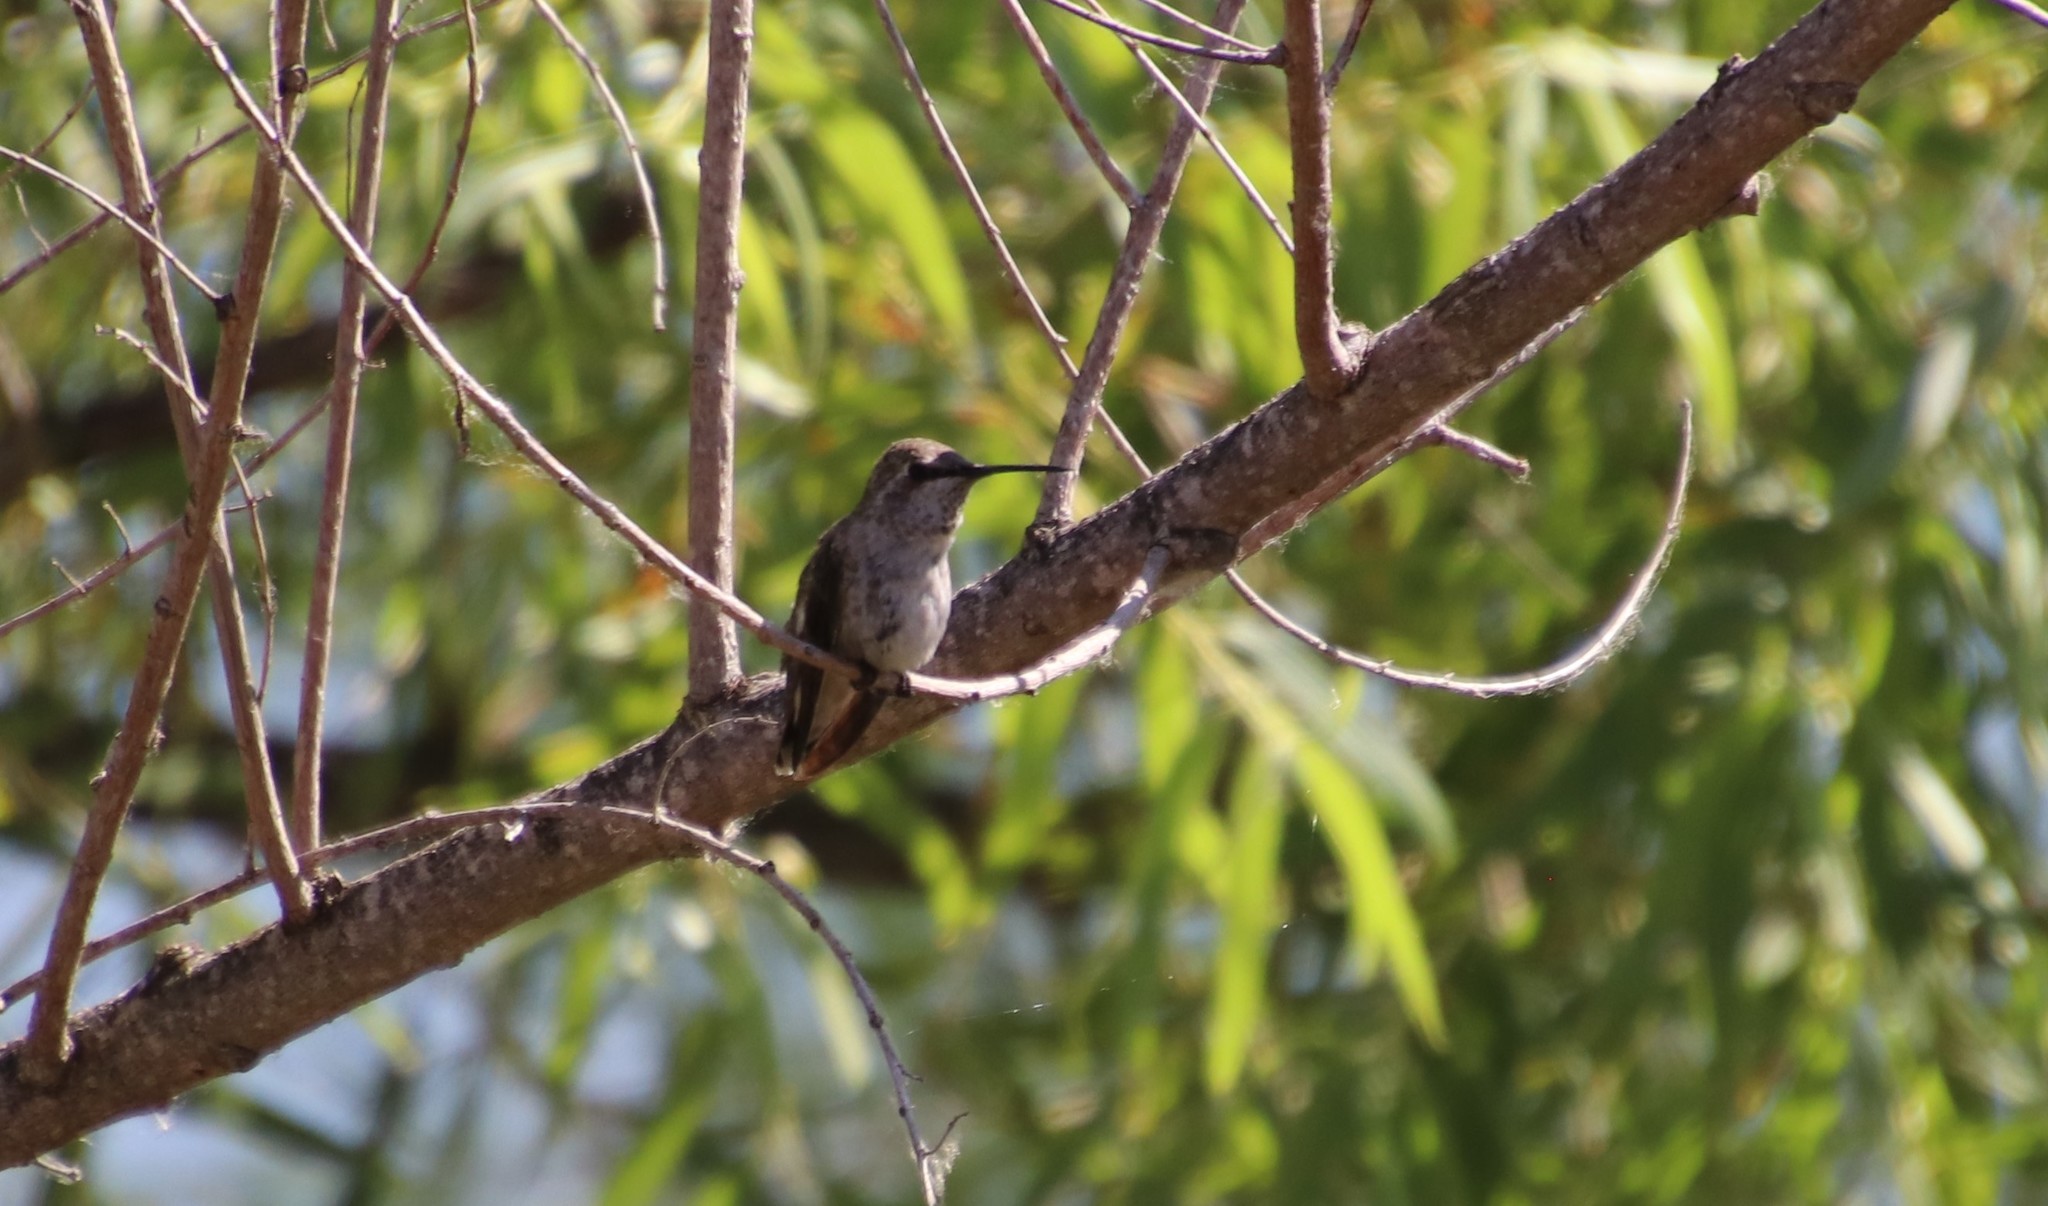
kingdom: Animalia
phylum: Chordata
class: Aves
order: Apodiformes
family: Trochilidae
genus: Calypte
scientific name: Calypte anna
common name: Anna's hummingbird
